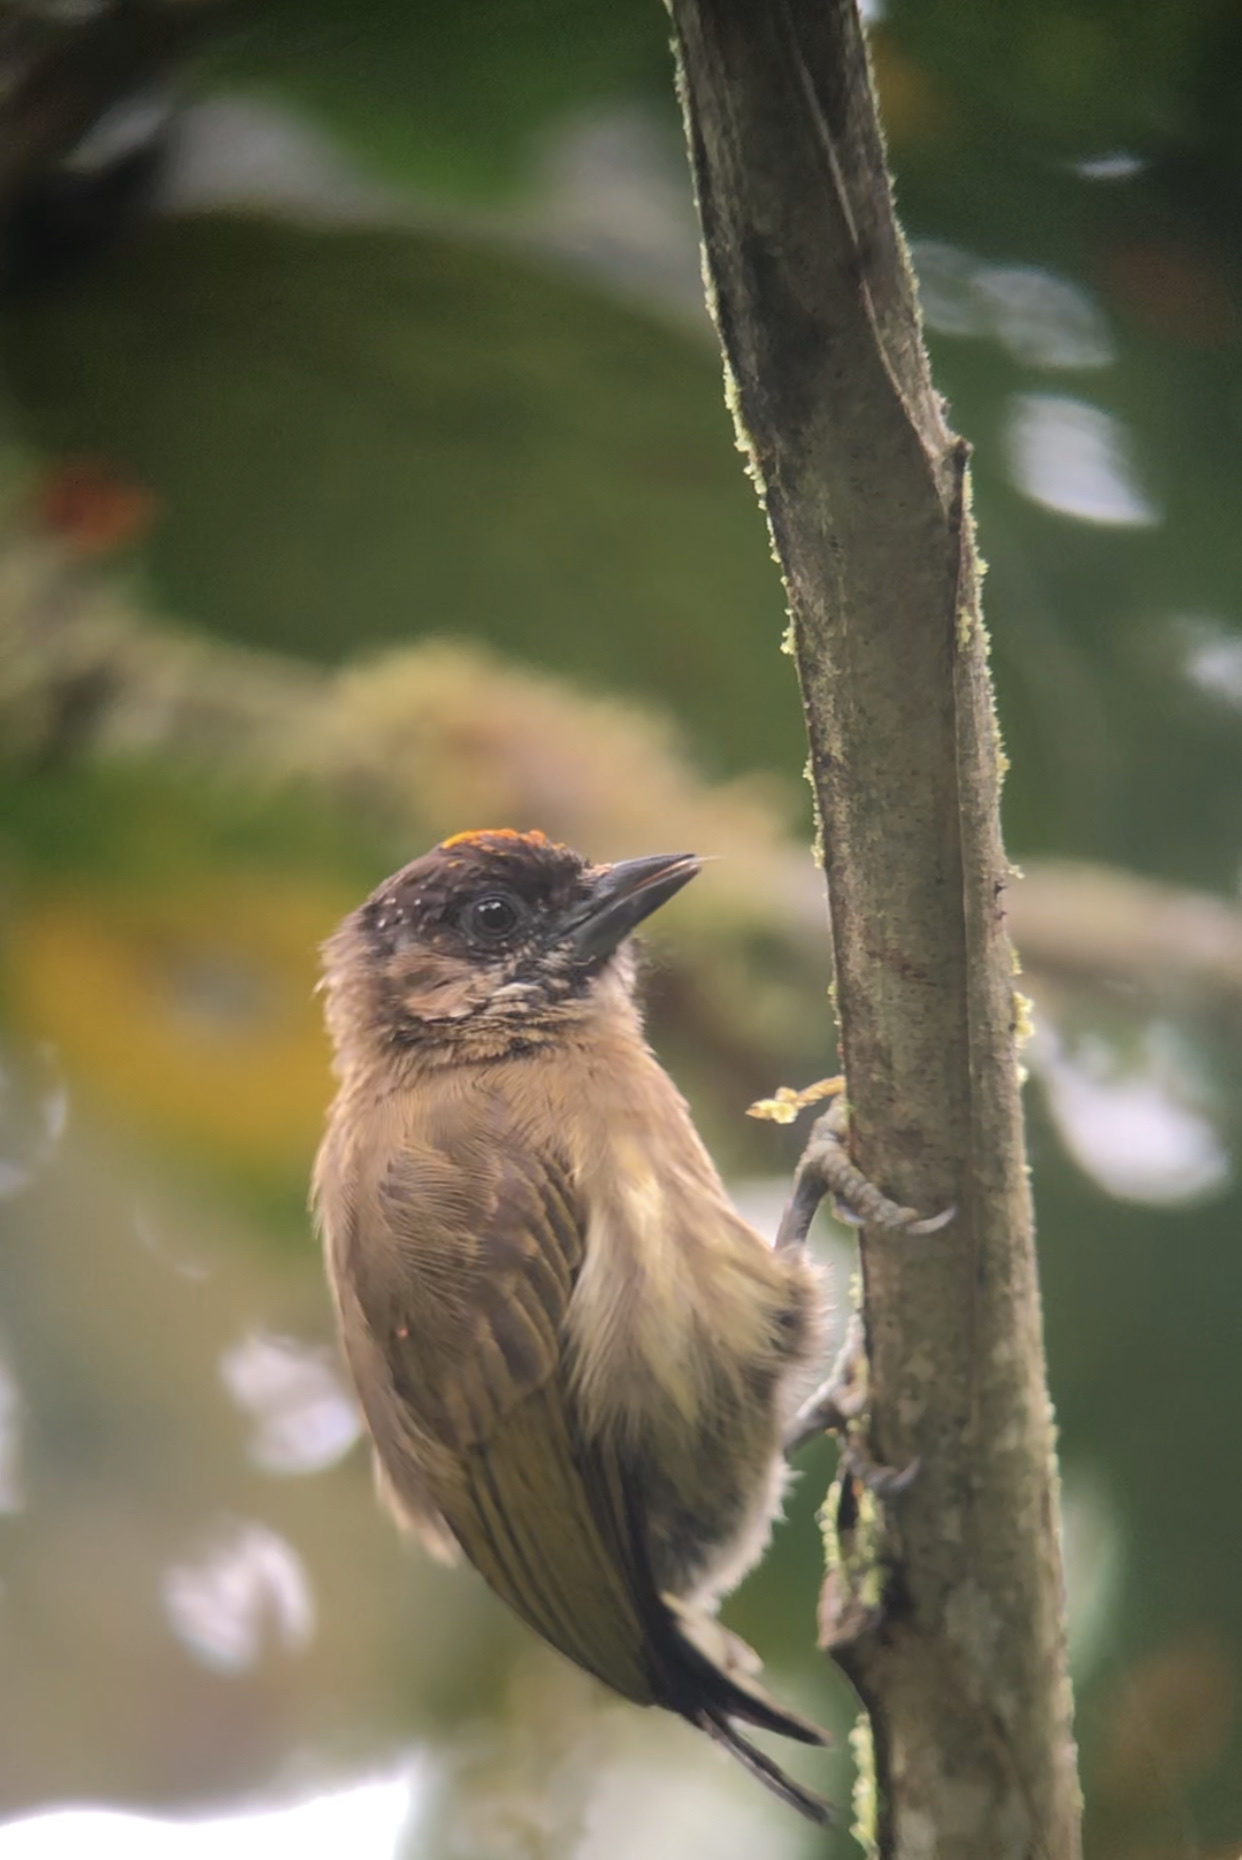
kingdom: Animalia
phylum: Chordata
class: Aves
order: Piciformes
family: Picidae
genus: Picumnus
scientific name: Picumnus olivaceus
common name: Olivaceous piculet
